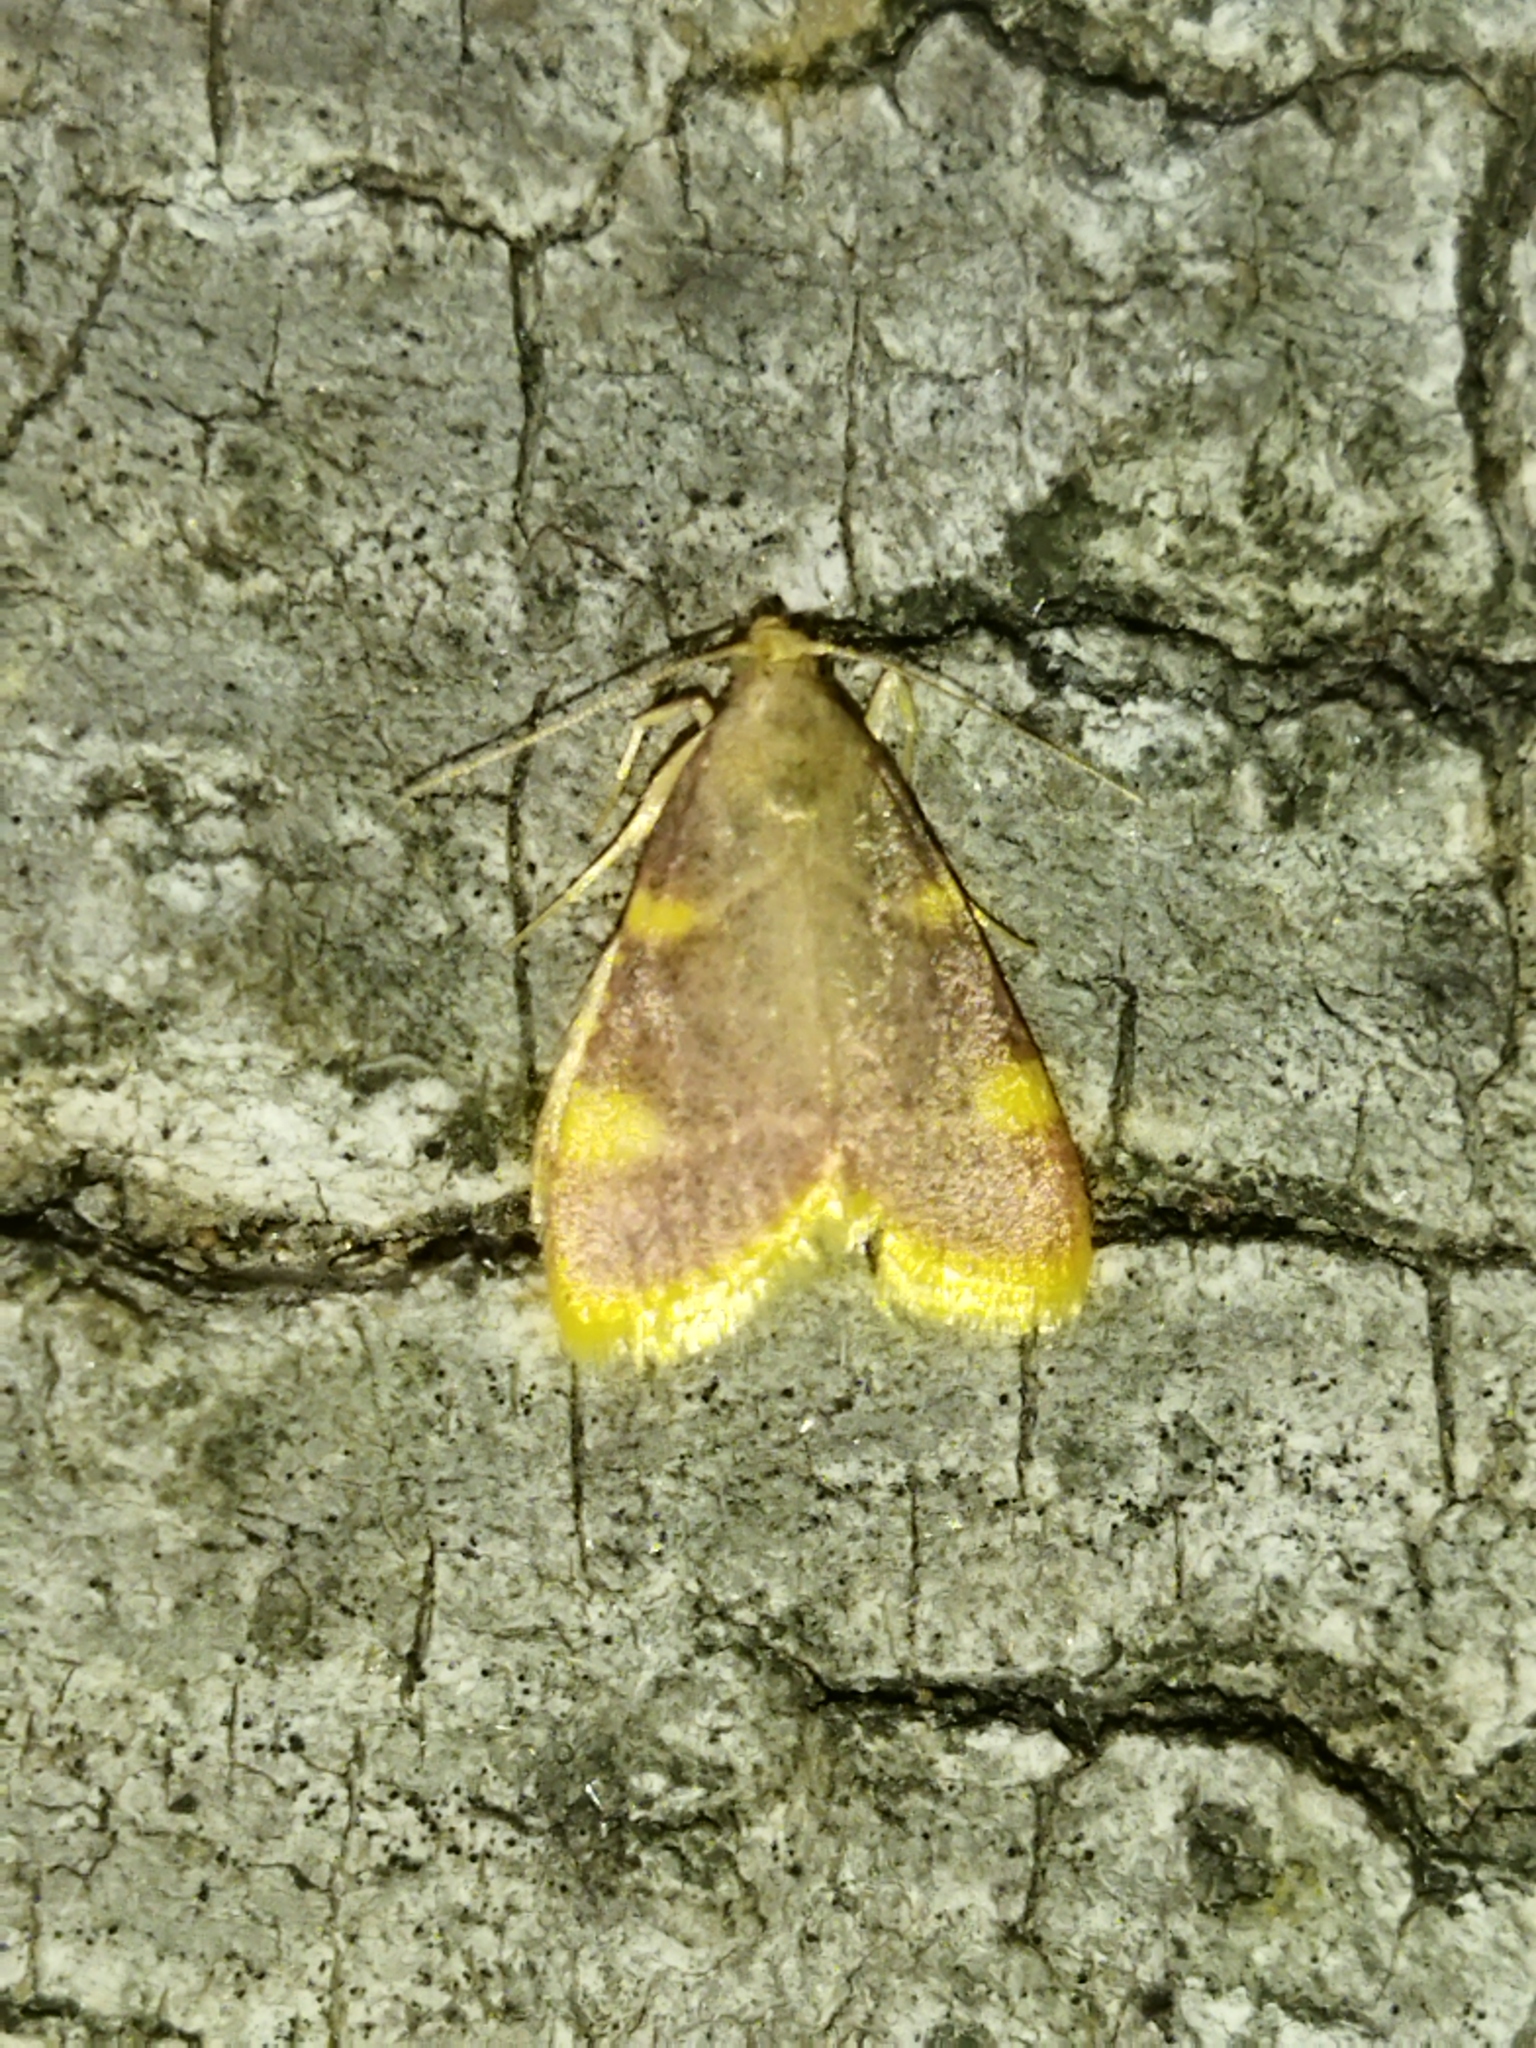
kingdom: Animalia
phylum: Arthropoda
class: Insecta
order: Lepidoptera
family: Pyralidae
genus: Hypsopygia
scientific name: Hypsopygia costalis
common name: Gold triangle
